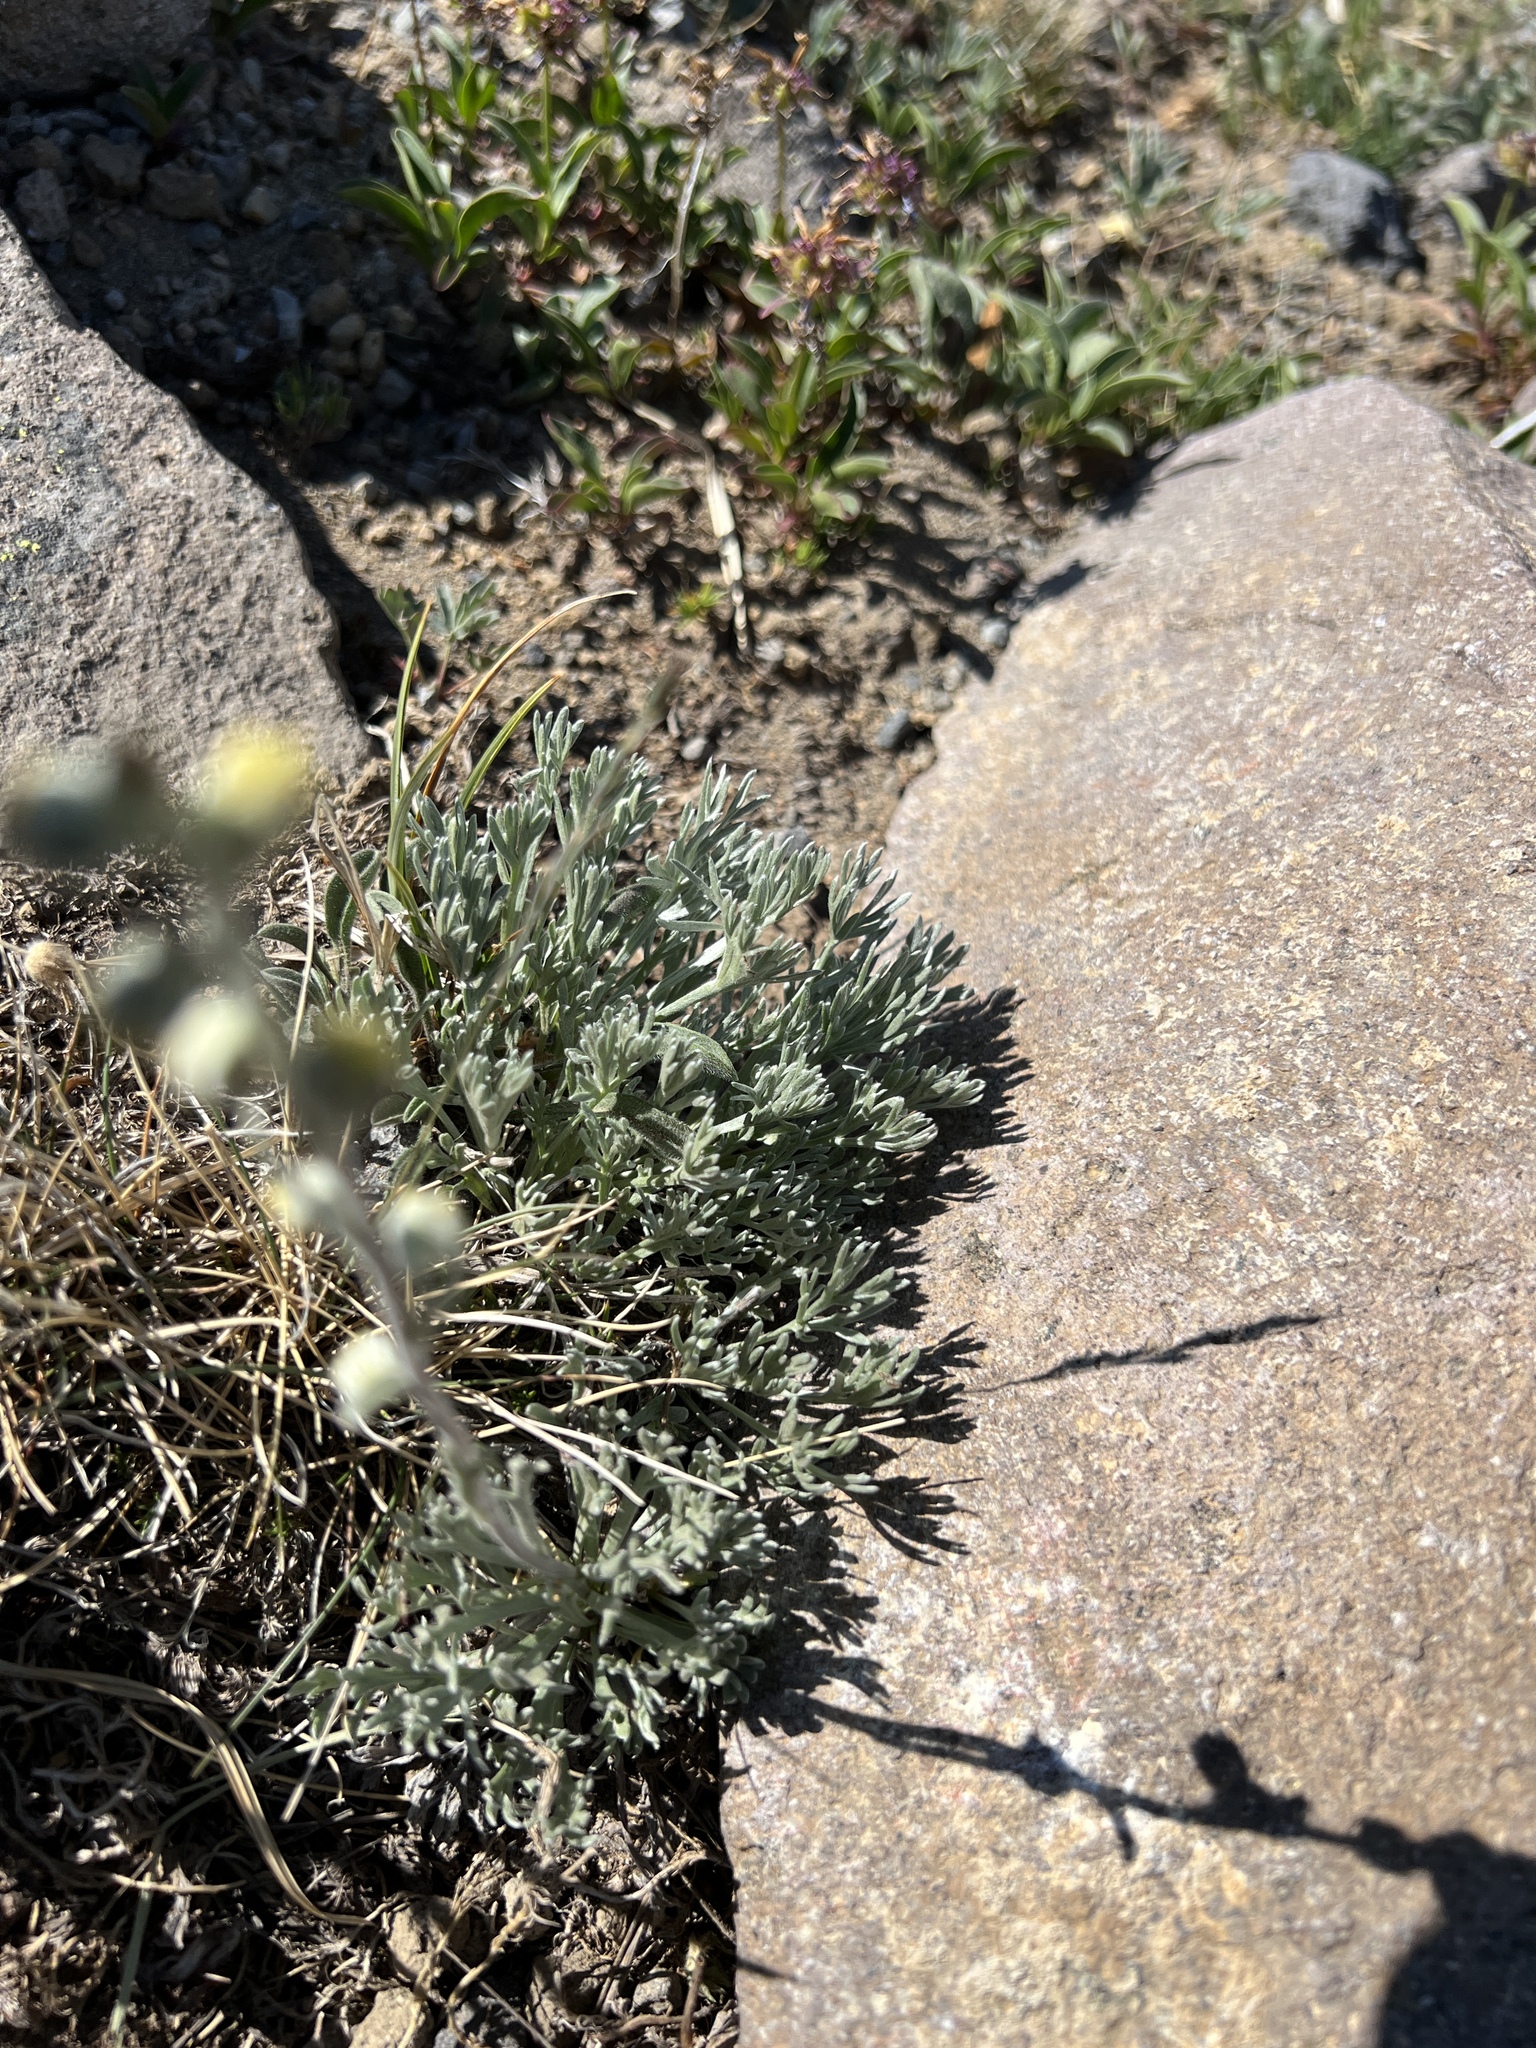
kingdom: Plantae
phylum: Tracheophyta
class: Magnoliopsida
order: Asterales
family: Asteraceae
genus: Artemisia
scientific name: Artemisia furcata
